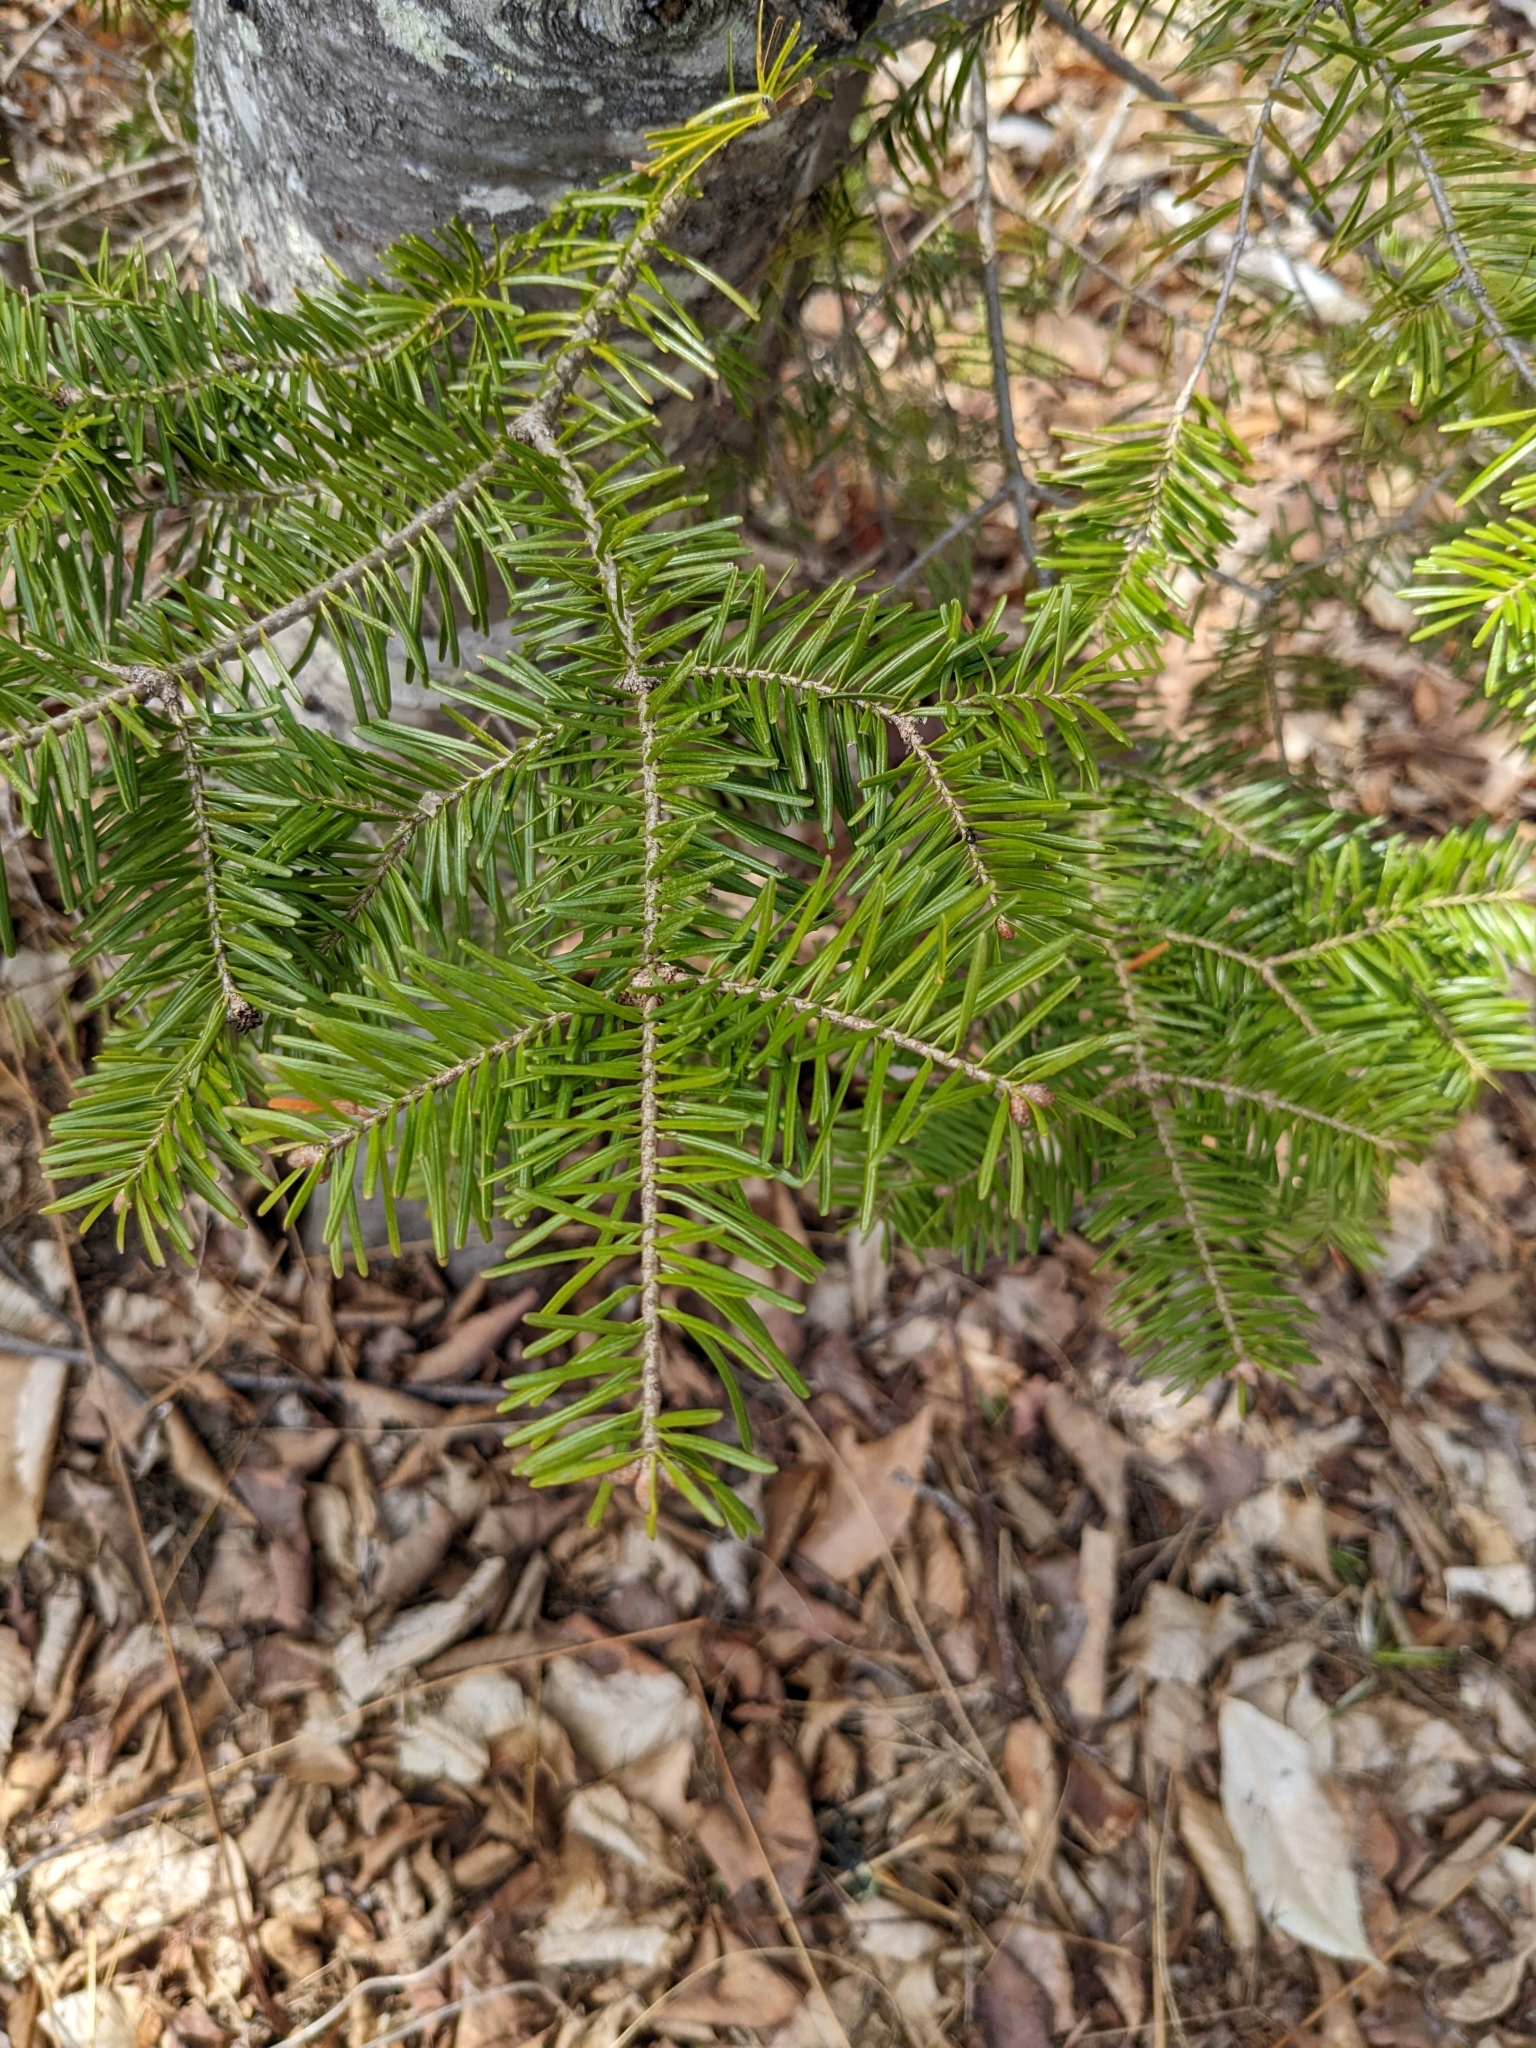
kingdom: Plantae
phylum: Tracheophyta
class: Pinopsida
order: Pinales
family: Pinaceae
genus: Abies
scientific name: Abies balsamea
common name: Balsam fir
